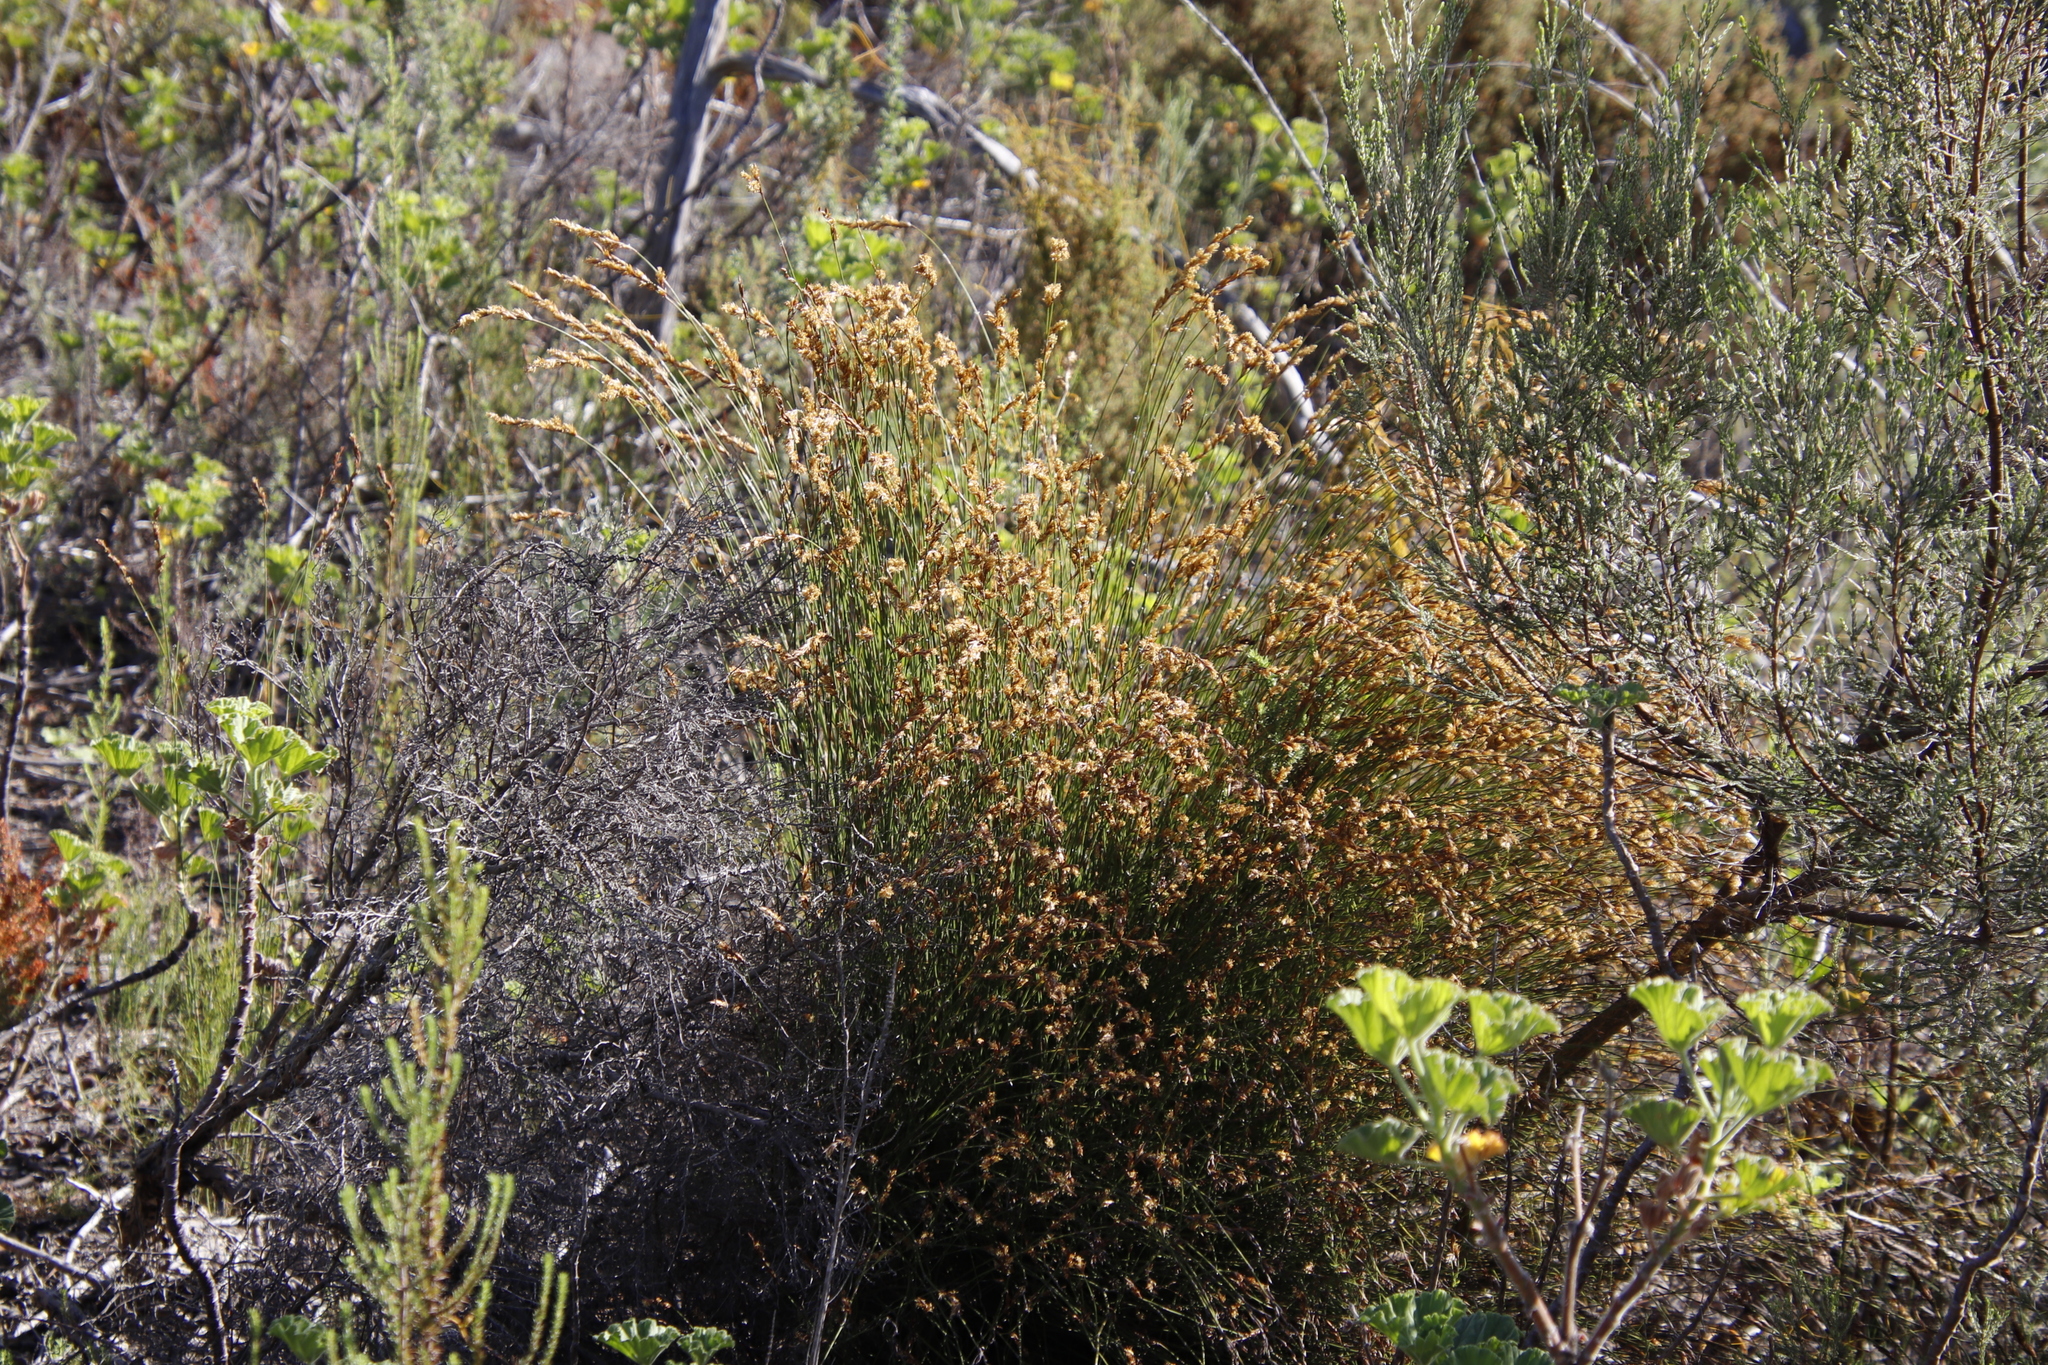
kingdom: Plantae
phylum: Tracheophyta
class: Liliopsida
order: Poales
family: Restionaceae
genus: Restio
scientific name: Restio triticeus
